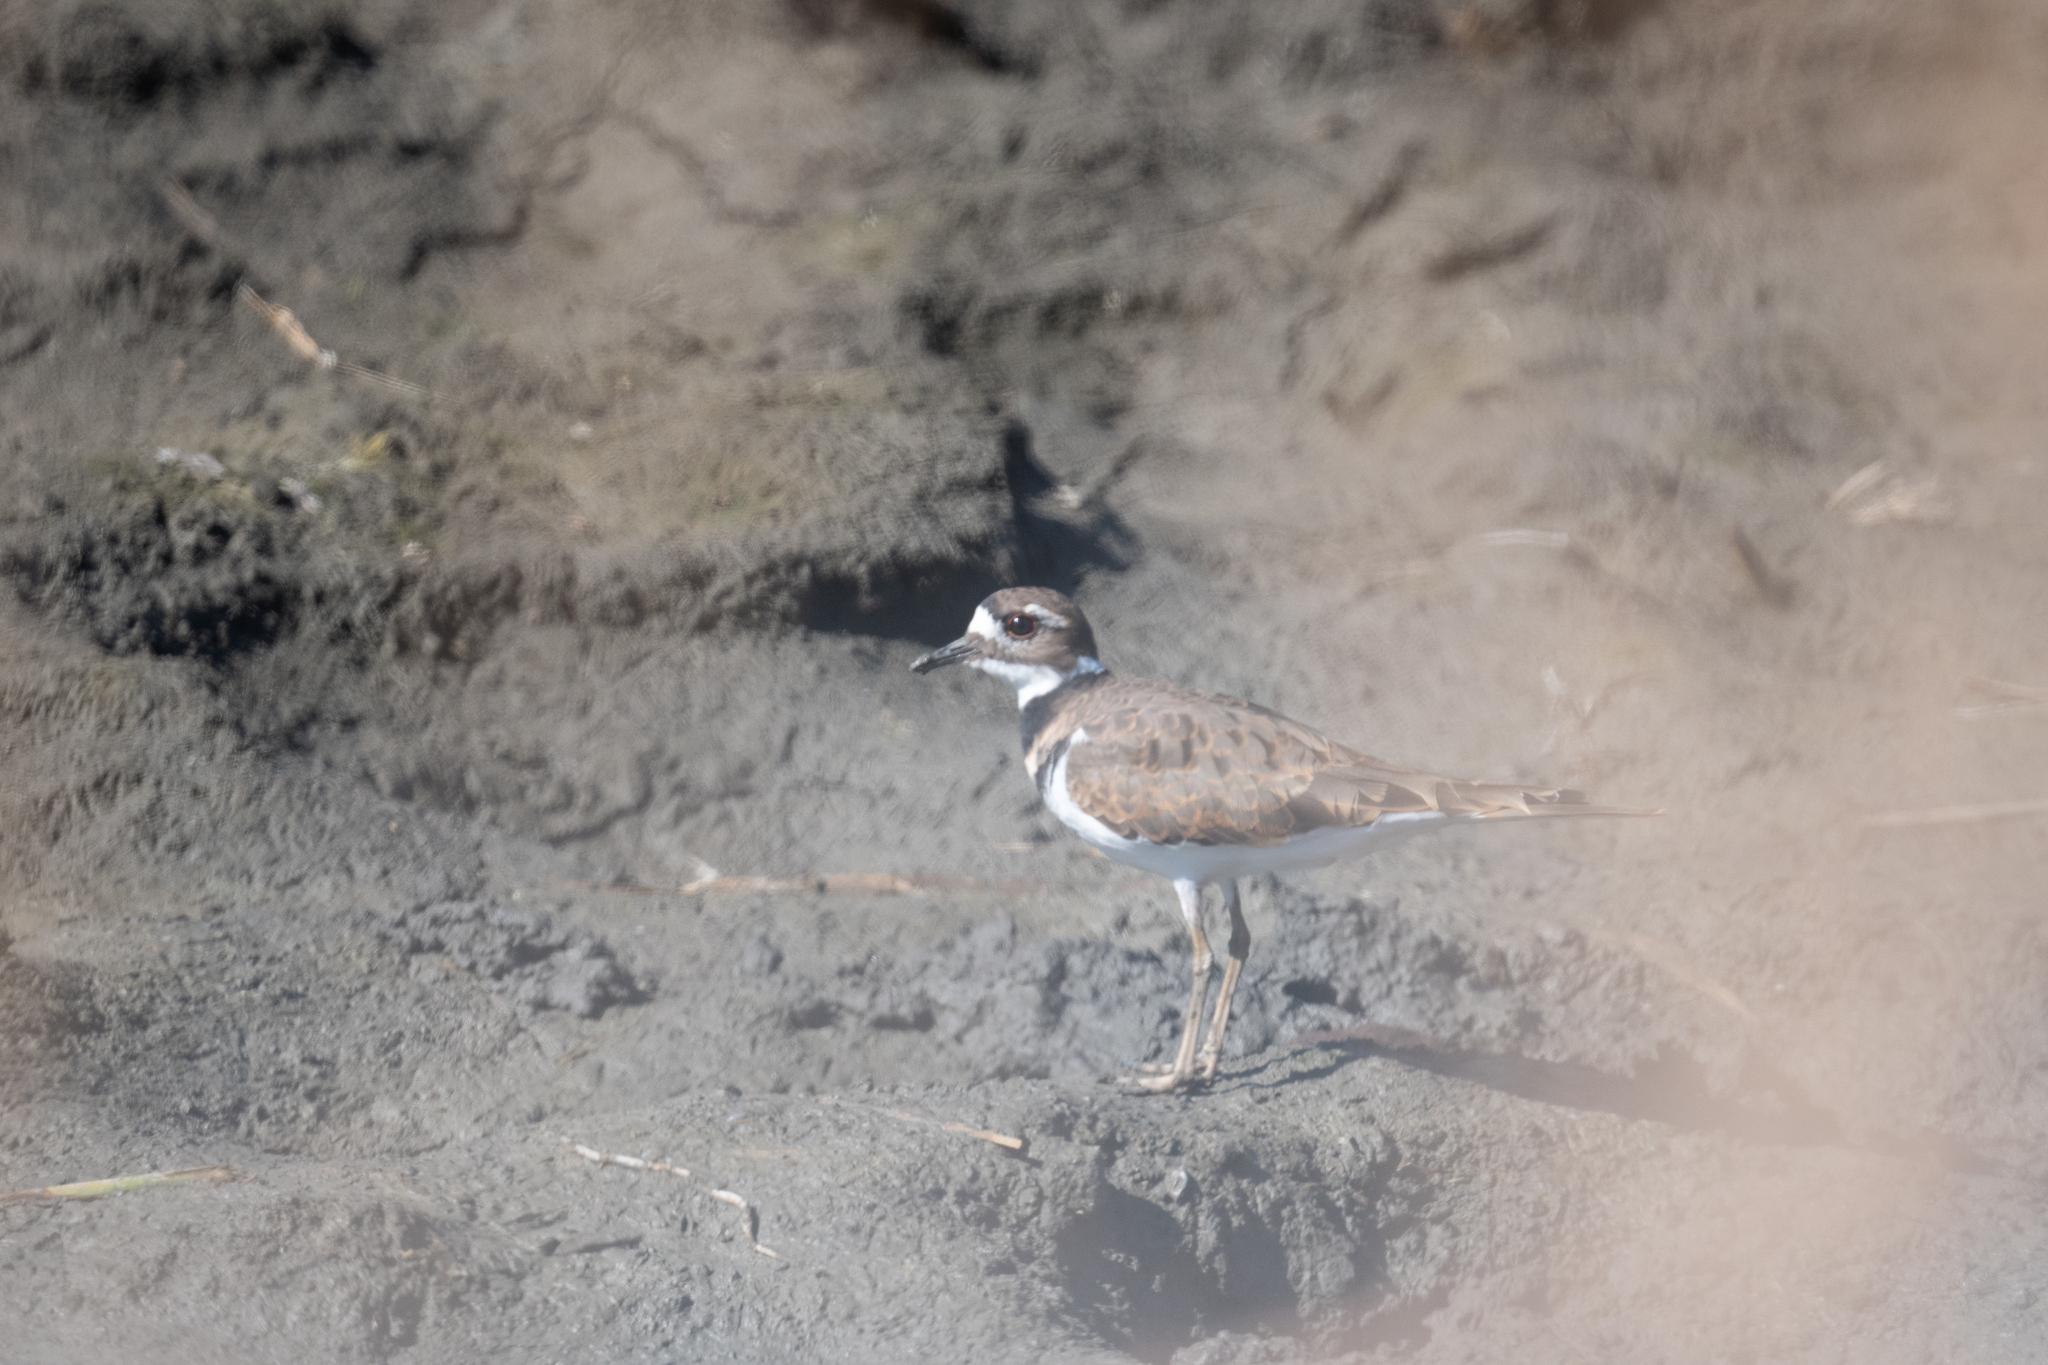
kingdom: Animalia
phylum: Chordata
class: Aves
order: Charadriiformes
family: Charadriidae
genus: Charadrius
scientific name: Charadrius vociferus
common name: Killdeer
